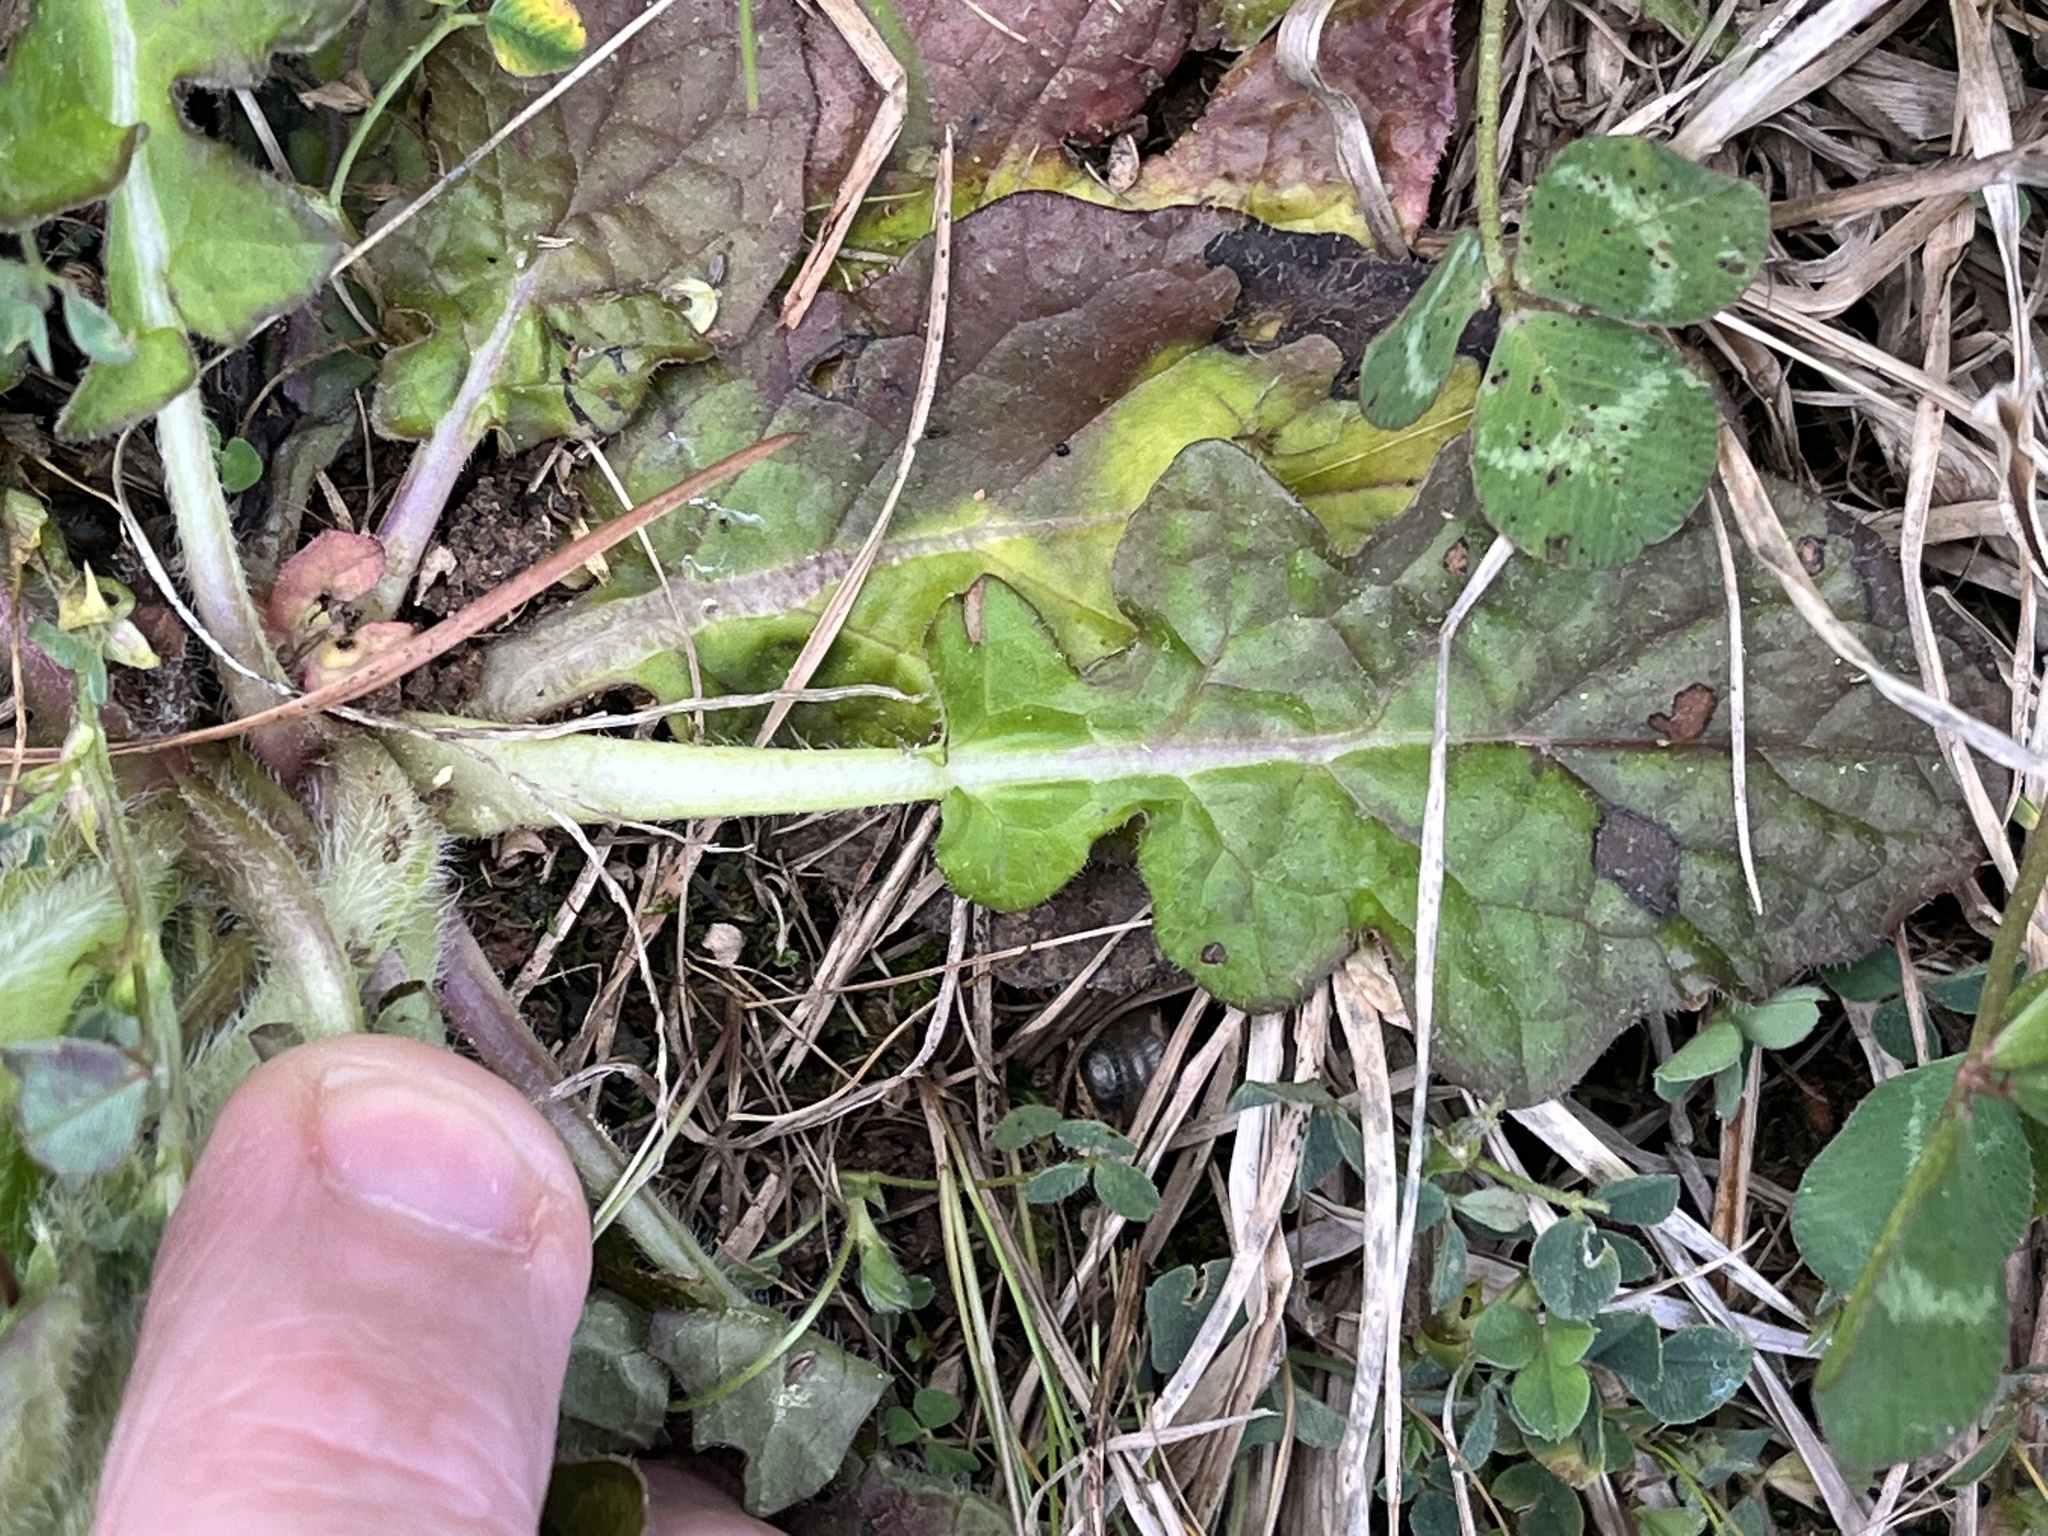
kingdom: Plantae
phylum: Tracheophyta
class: Magnoliopsida
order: Lamiales
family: Lamiaceae
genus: Salvia
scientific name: Salvia lyrata
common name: Cancerweed
